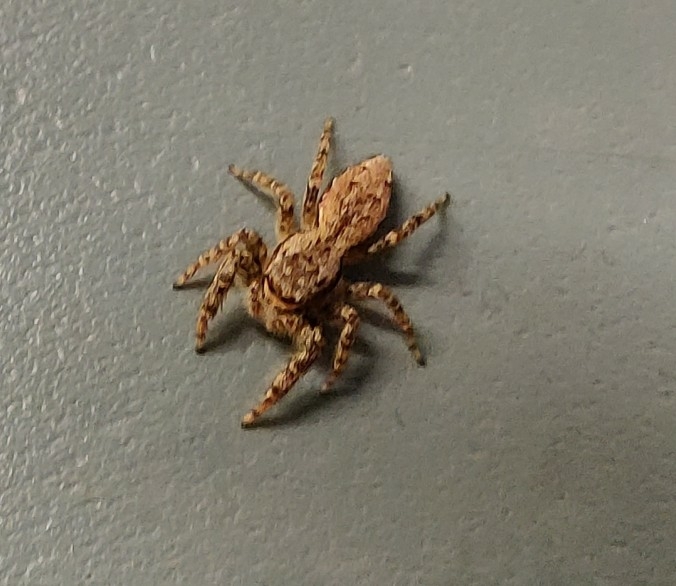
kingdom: Animalia
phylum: Arthropoda
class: Arachnida
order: Araneae
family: Salticidae
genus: Marpissa
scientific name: Marpissa muscosa
